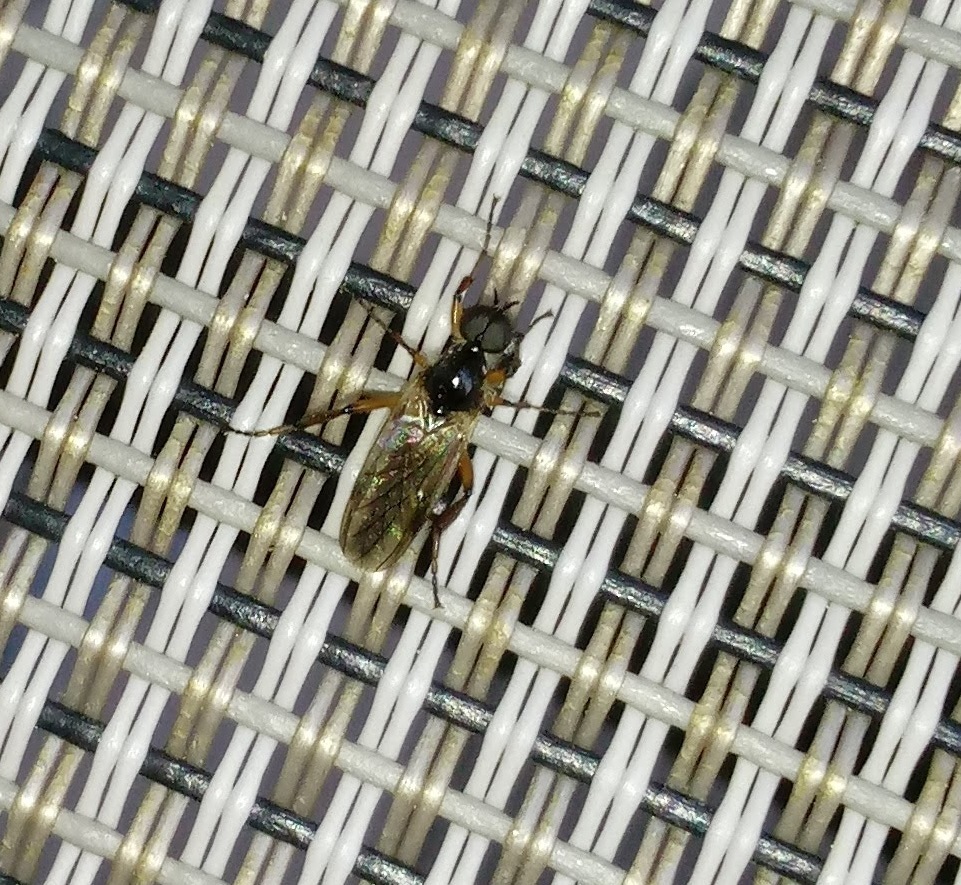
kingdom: Animalia
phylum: Arthropoda
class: Insecta
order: Diptera
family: Bibionidae
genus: Bibio
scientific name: Bibio articulatus
